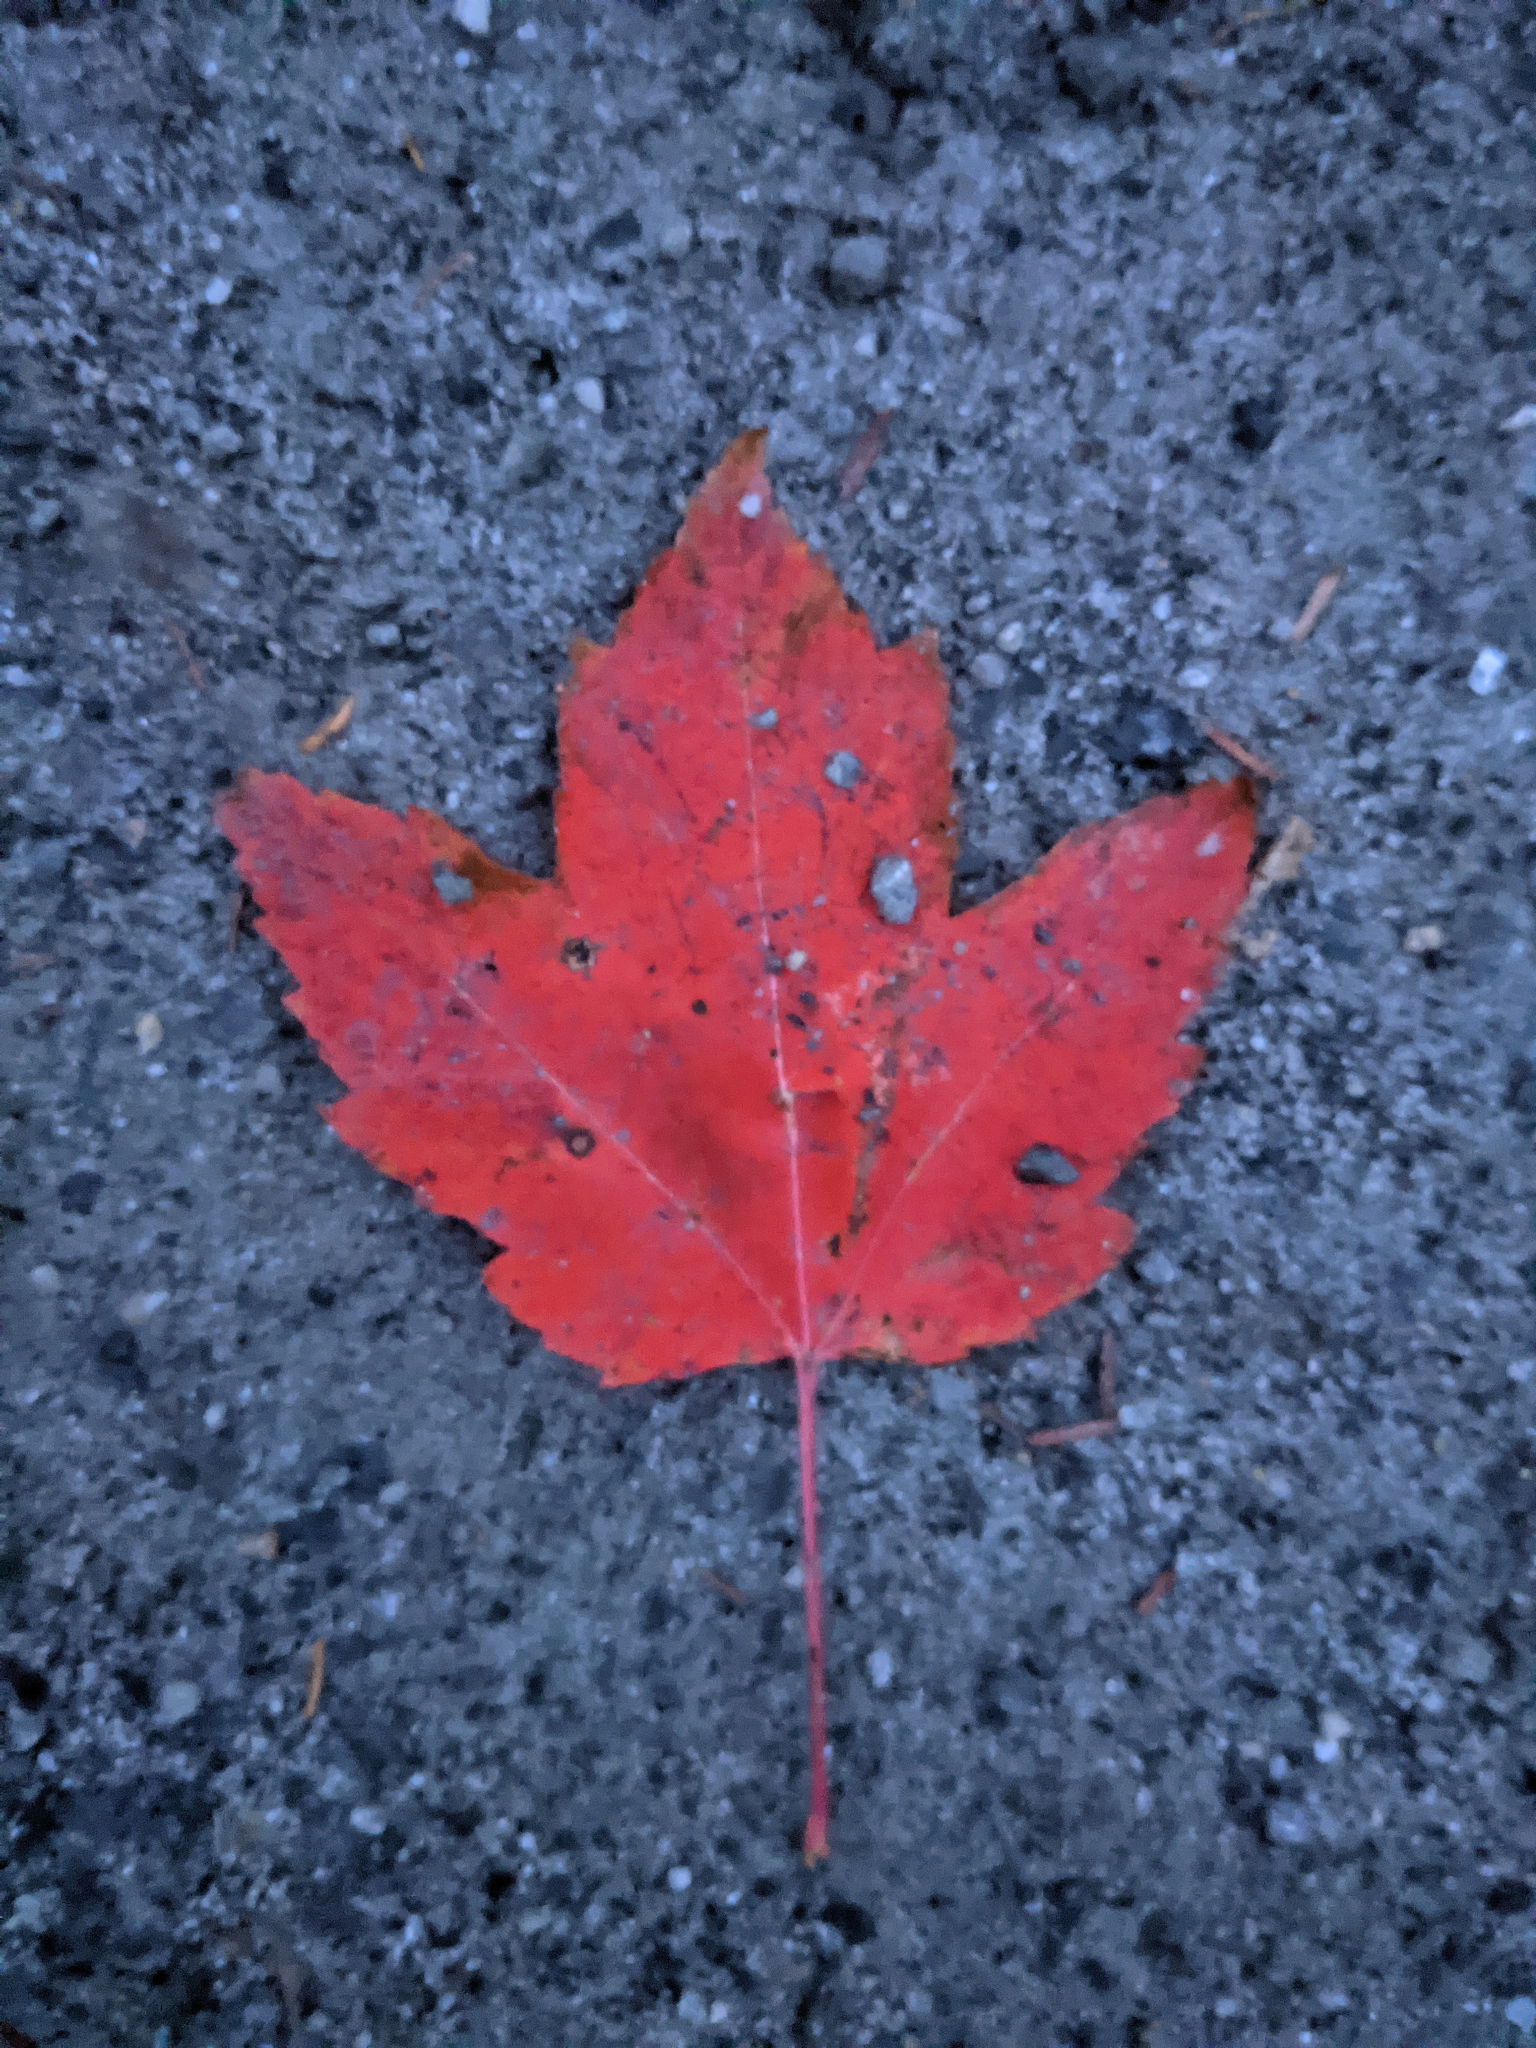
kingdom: Plantae
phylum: Tracheophyta
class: Magnoliopsida
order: Sapindales
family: Sapindaceae
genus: Acer
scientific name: Acer rubrum
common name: Red maple
